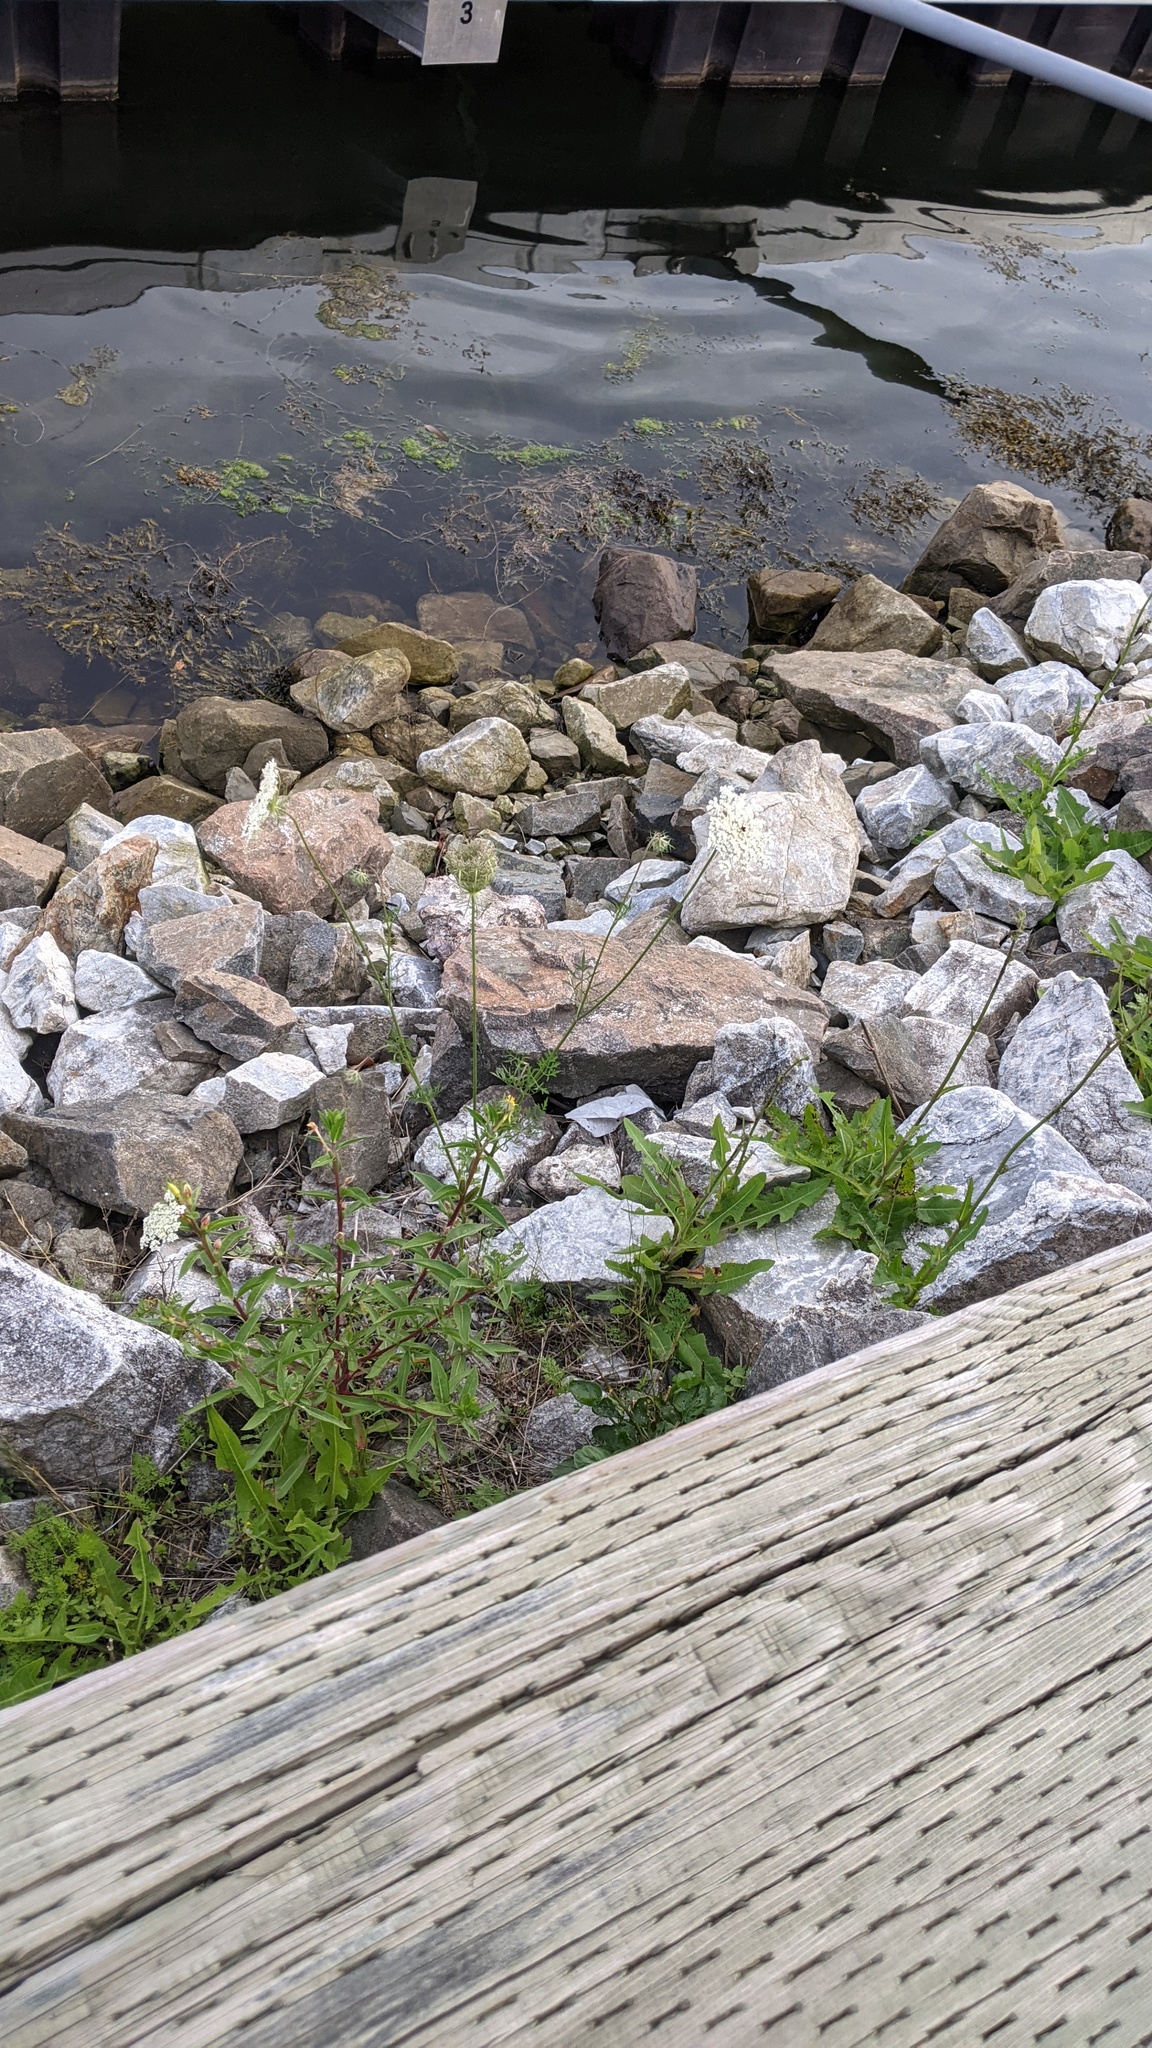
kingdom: Plantae
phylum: Tracheophyta
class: Magnoliopsida
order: Apiales
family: Apiaceae
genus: Daucus
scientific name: Daucus carota
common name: Wild carrot
